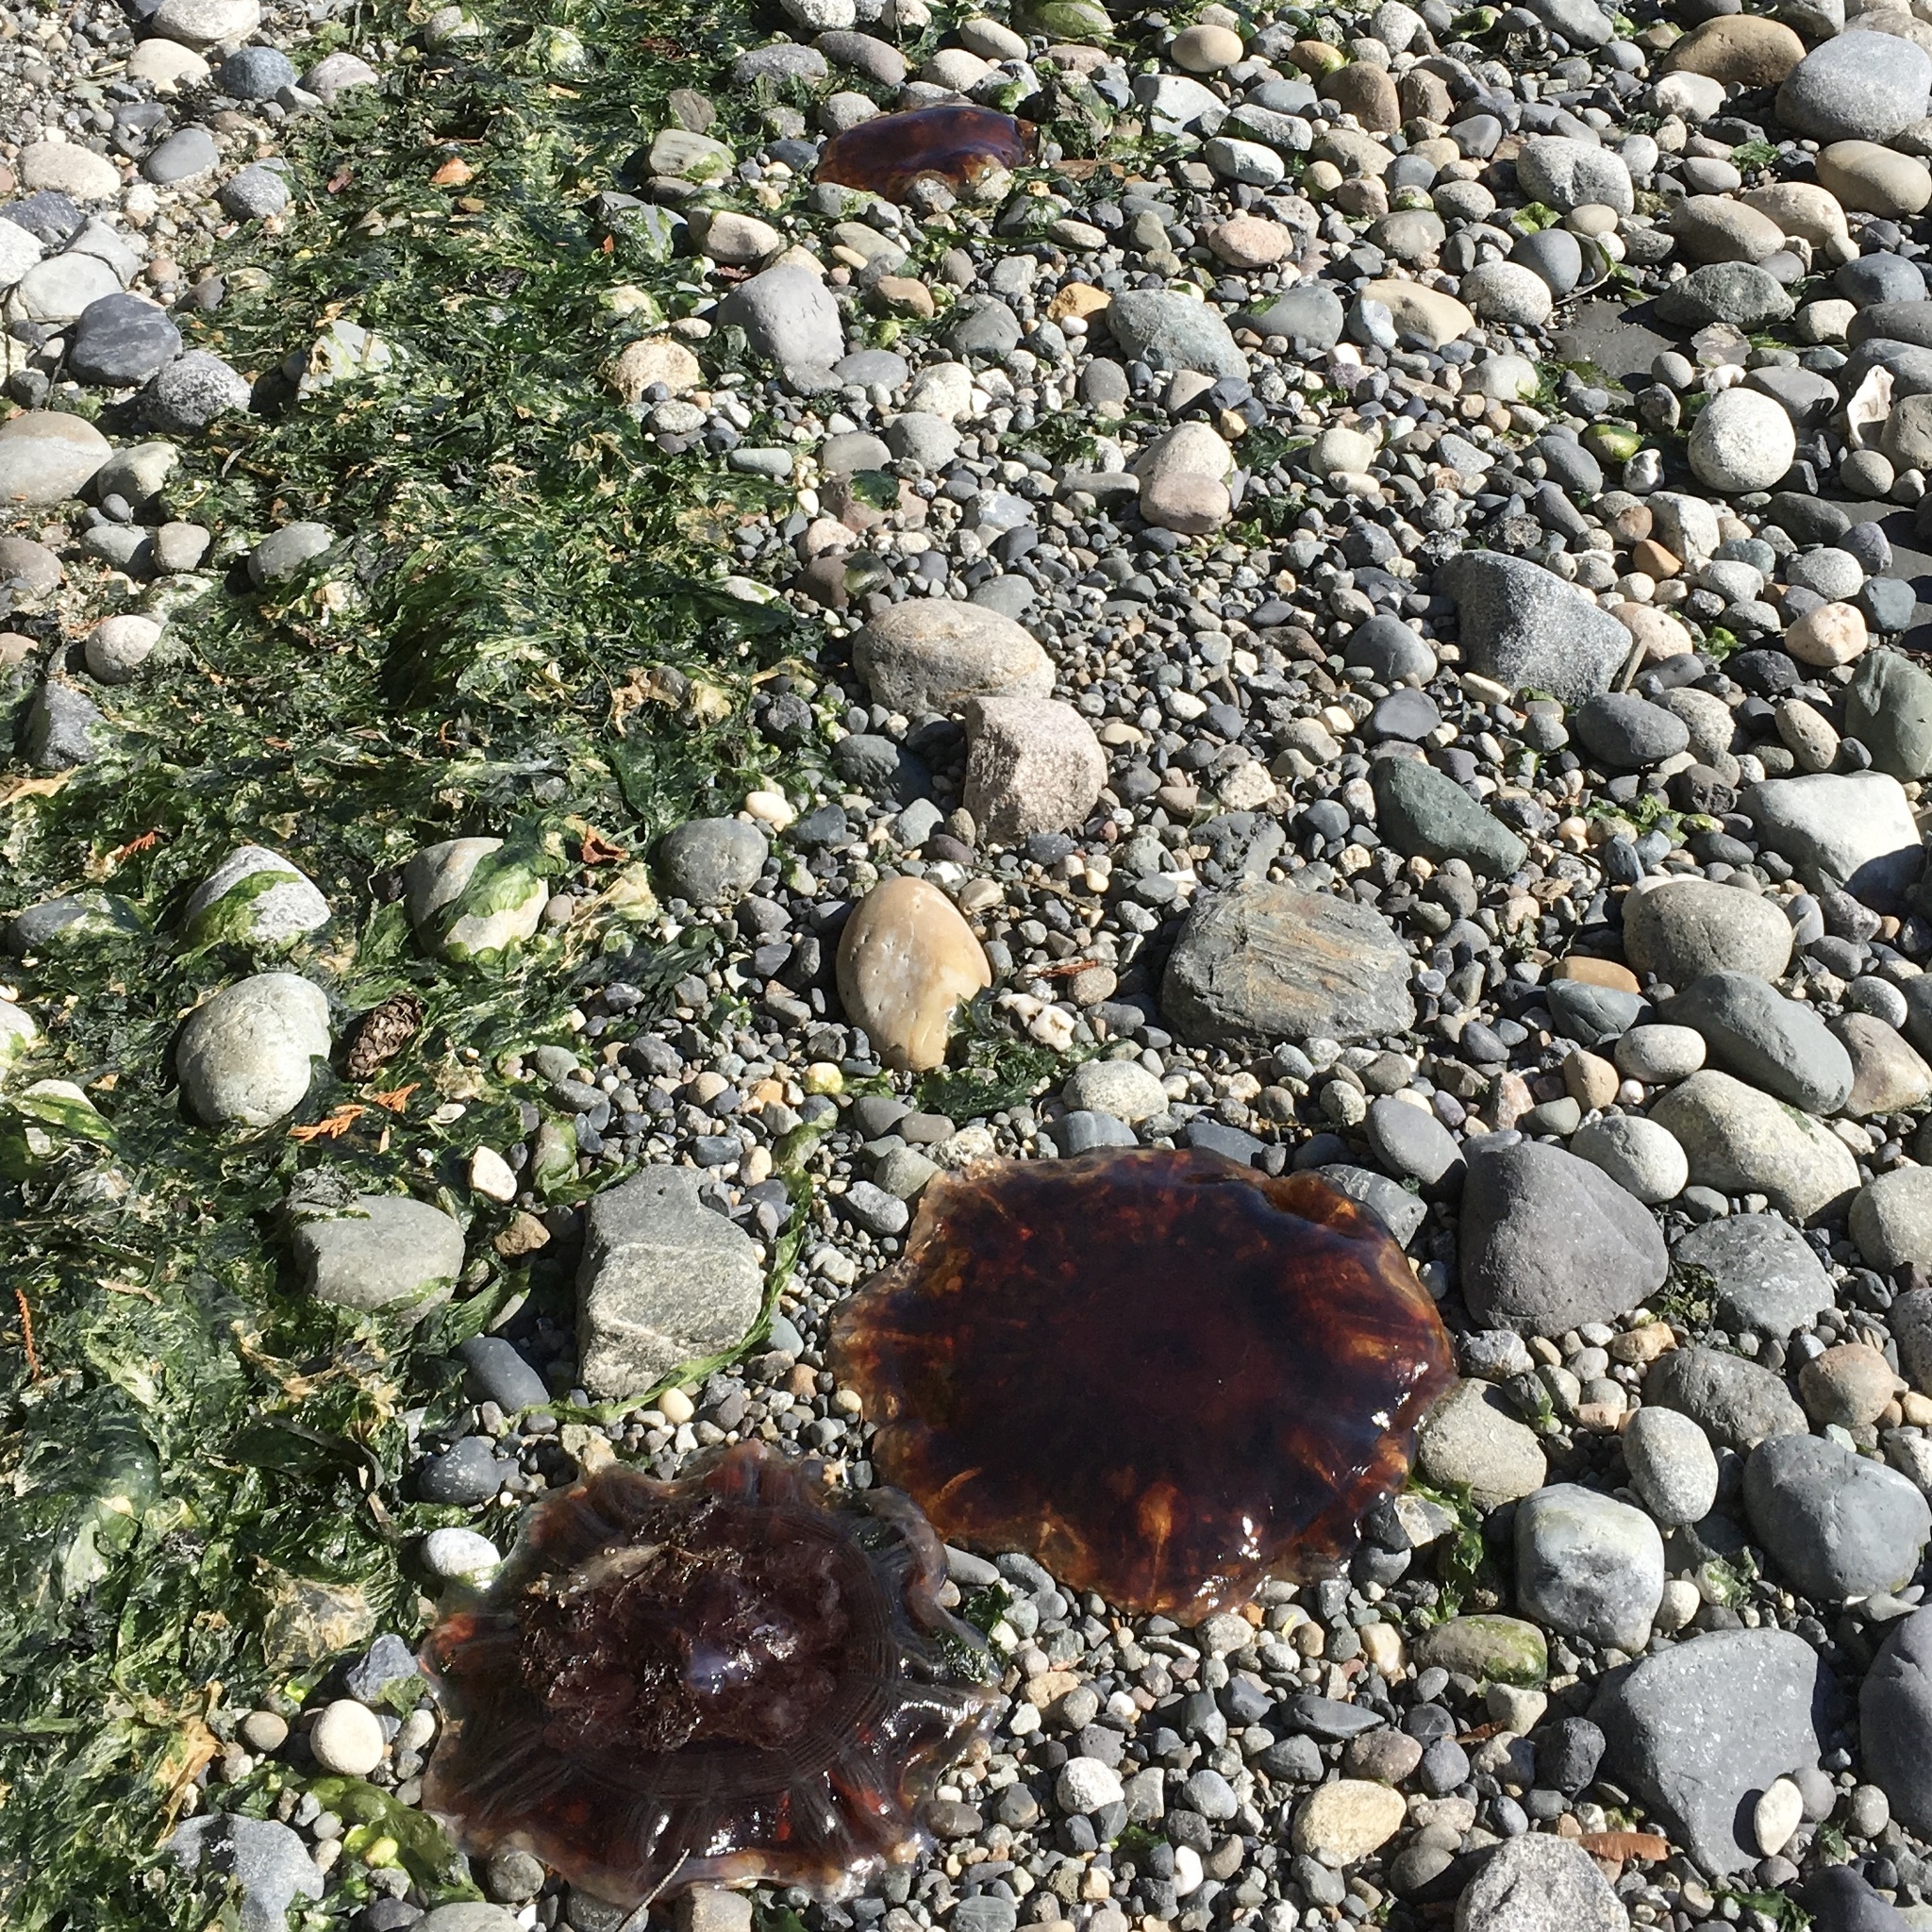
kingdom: Animalia
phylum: Cnidaria
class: Scyphozoa
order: Semaeostomeae
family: Cyaneidae
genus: Cyanea
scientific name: Cyanea ferruginea
